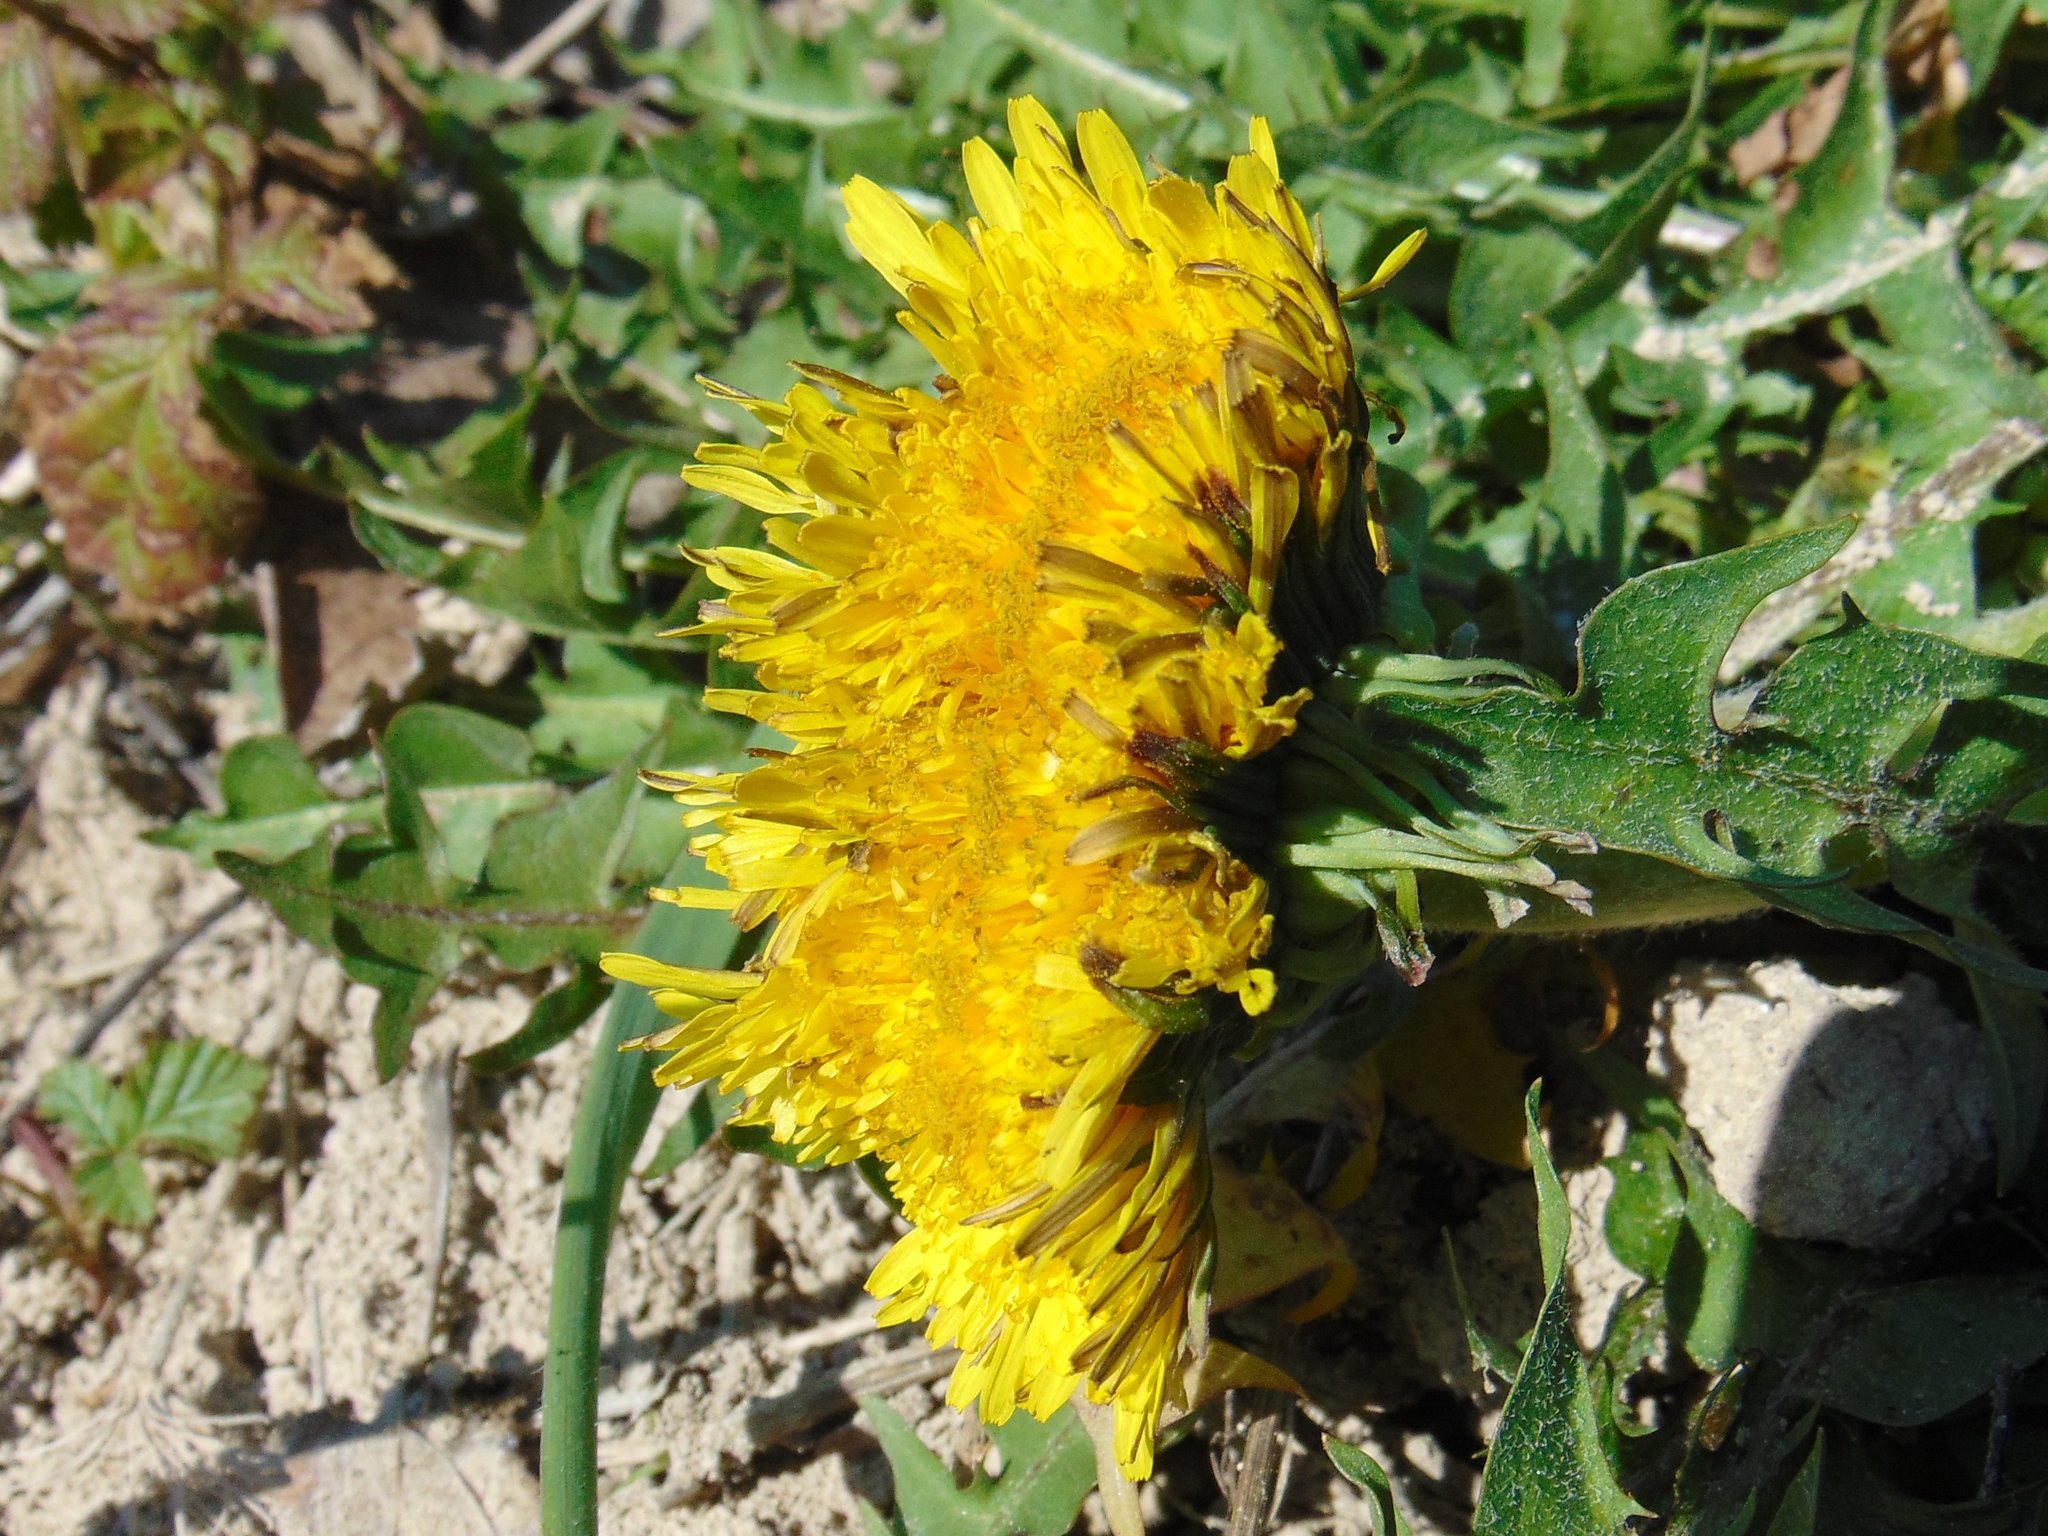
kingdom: Plantae
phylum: Tracheophyta
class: Magnoliopsida
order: Asterales
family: Asteraceae
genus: Taraxacum
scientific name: Taraxacum officinale
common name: Common dandelion
